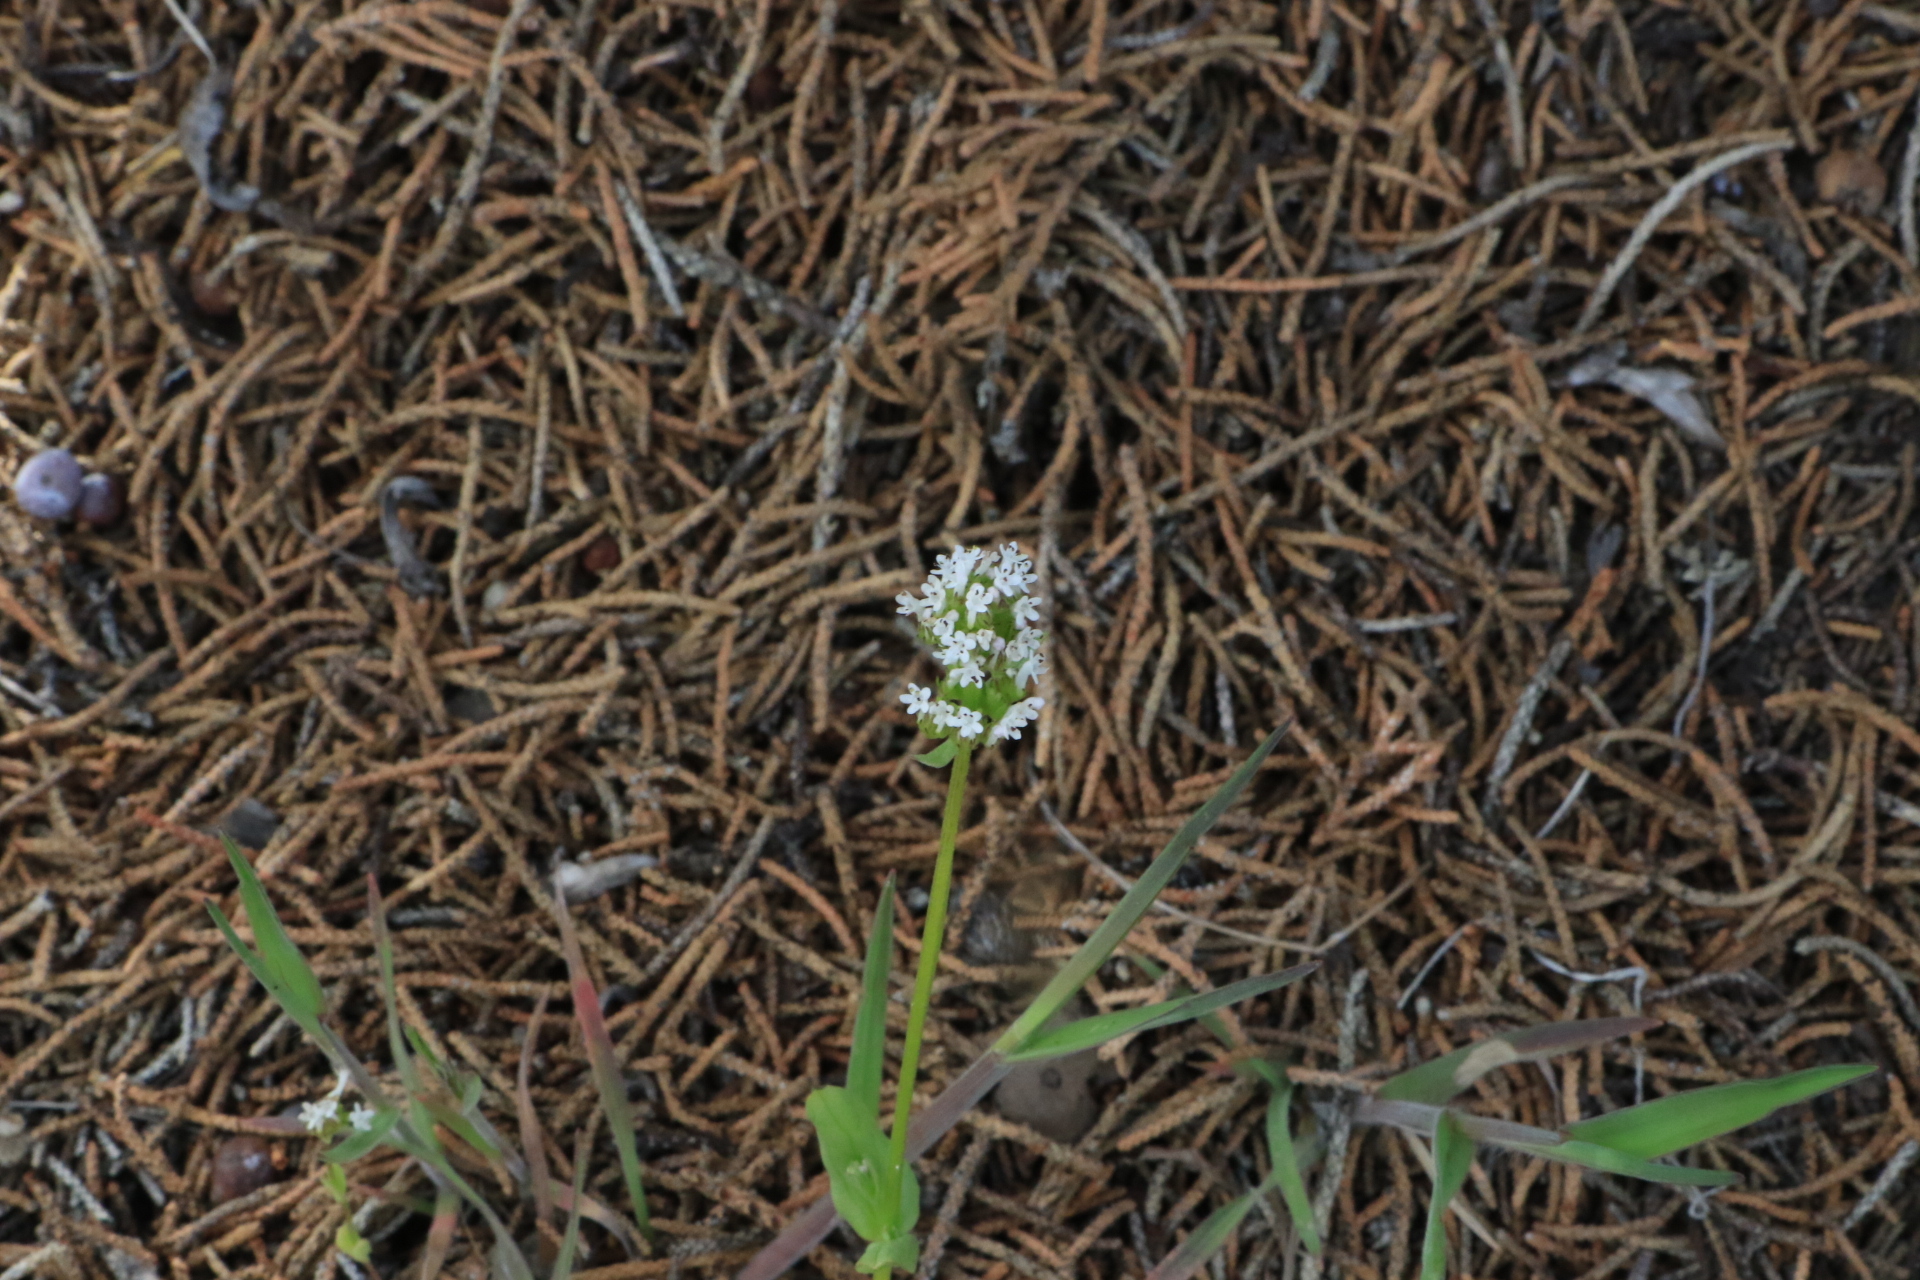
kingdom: Plantae
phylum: Tracheophyta
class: Magnoliopsida
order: Dipsacales
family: Caprifoliaceae
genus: Plectritis
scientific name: Plectritis macroptera
